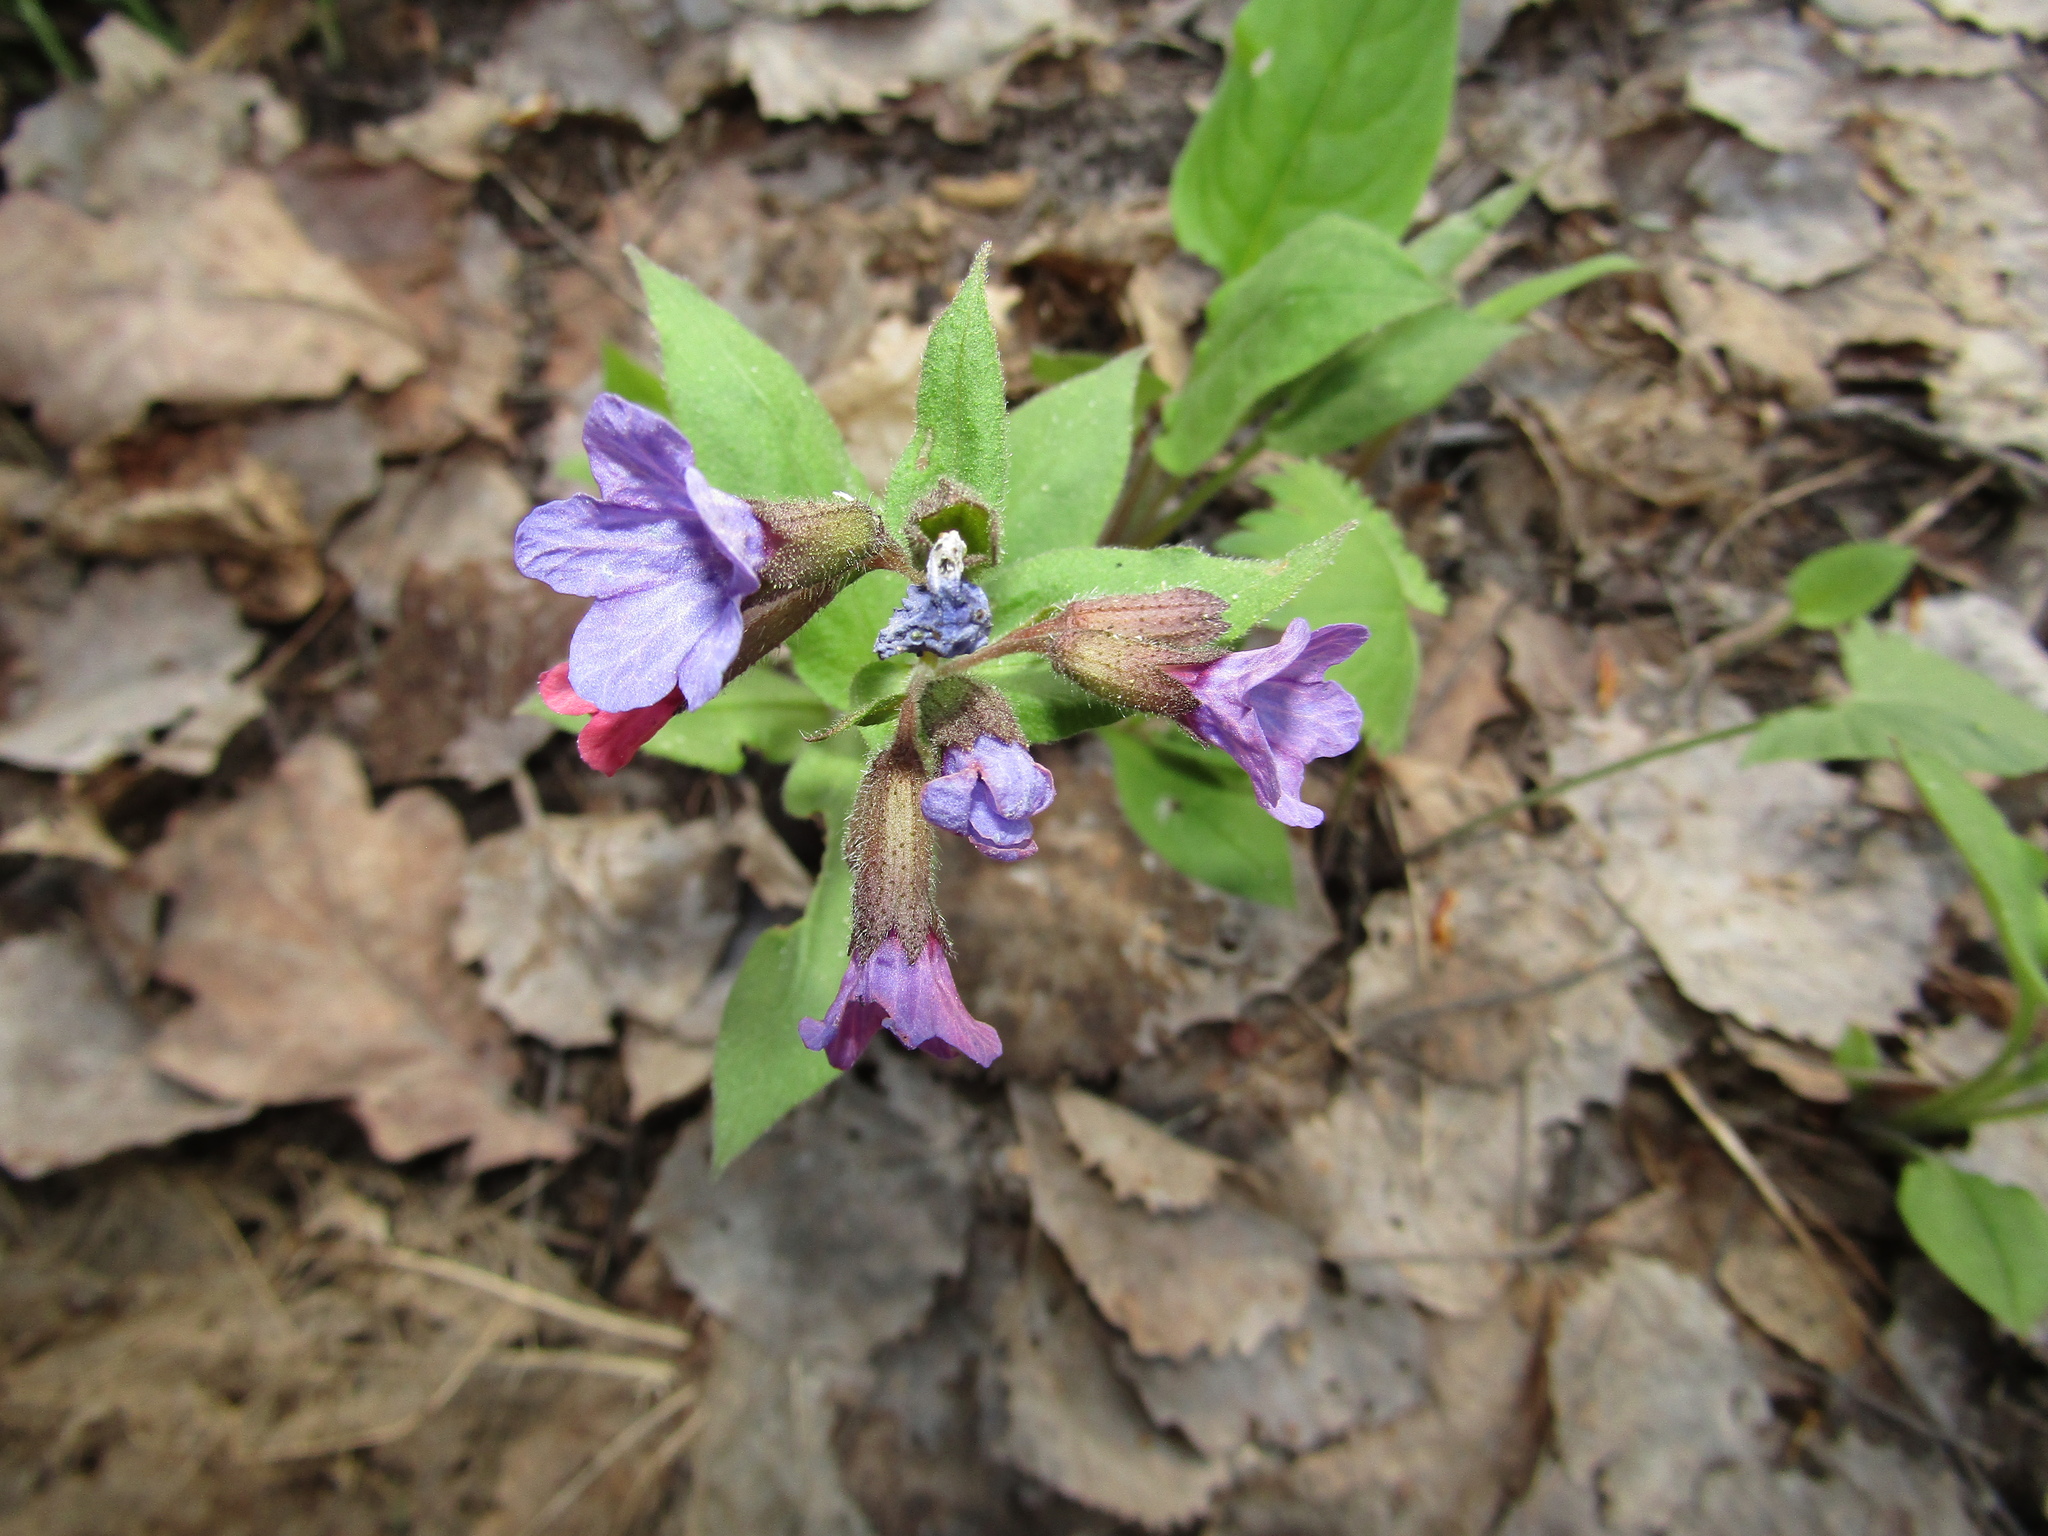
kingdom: Plantae
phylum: Tracheophyta
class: Magnoliopsida
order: Boraginales
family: Boraginaceae
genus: Pulmonaria
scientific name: Pulmonaria obscura
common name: Suffolk lungwort
